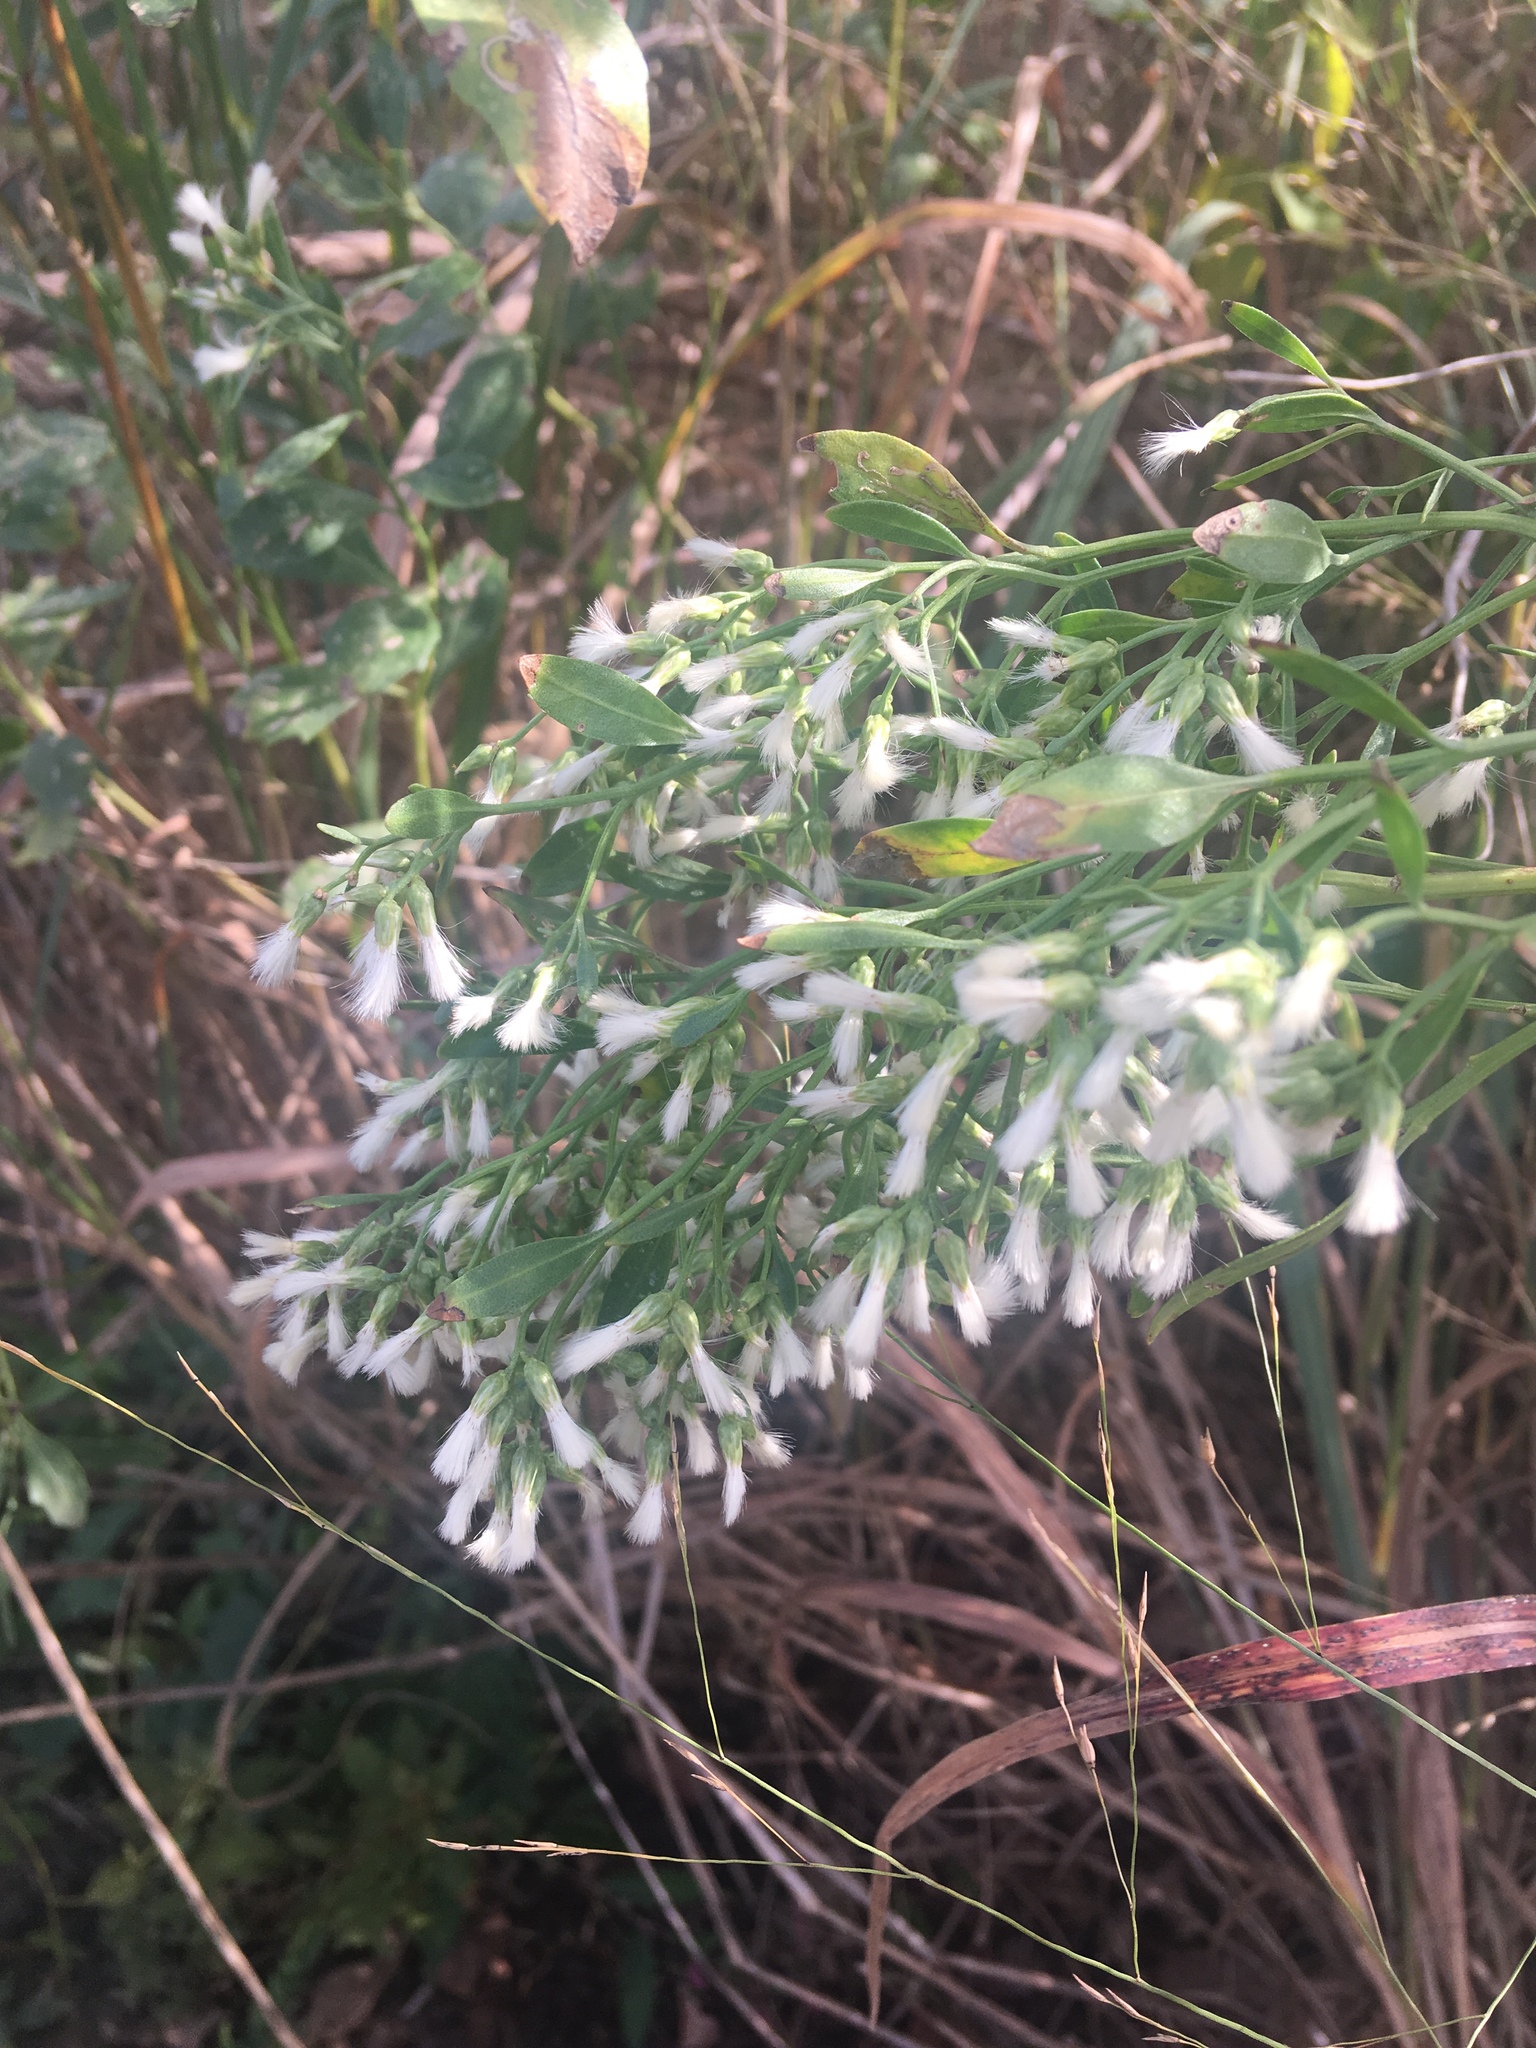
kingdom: Plantae
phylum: Tracheophyta
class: Magnoliopsida
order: Asterales
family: Asteraceae
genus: Baccharis
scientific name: Baccharis halimifolia
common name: Eastern baccharis
